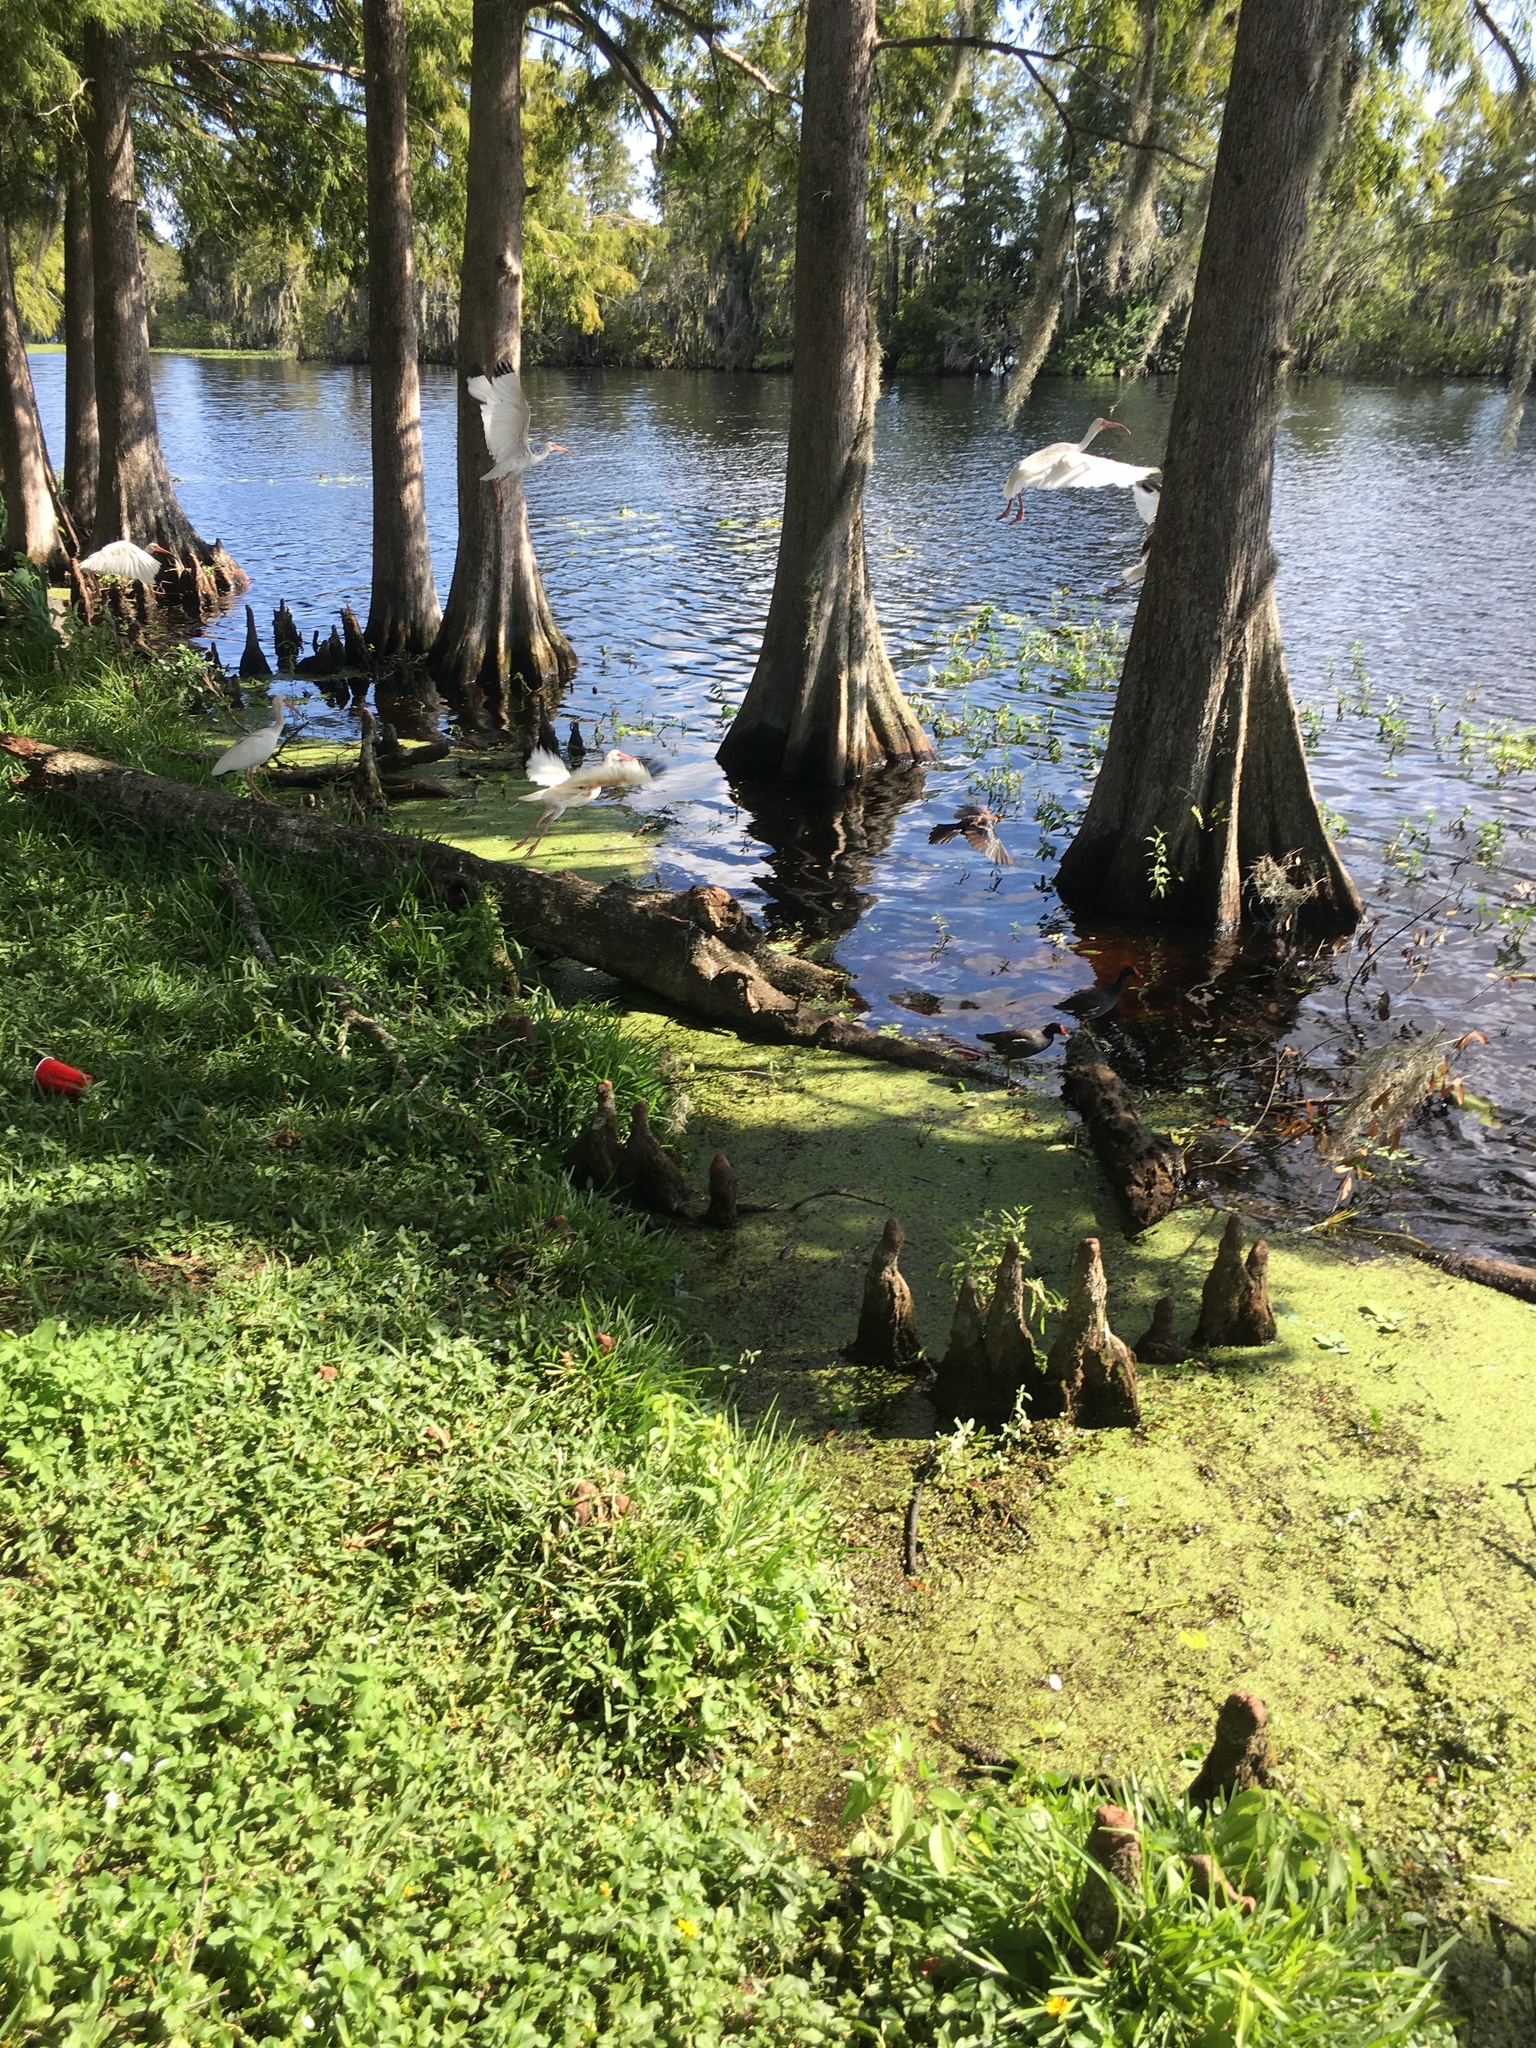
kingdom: Animalia
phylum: Chordata
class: Aves
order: Pelecaniformes
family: Threskiornithidae
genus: Eudocimus
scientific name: Eudocimus albus
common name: White ibis
